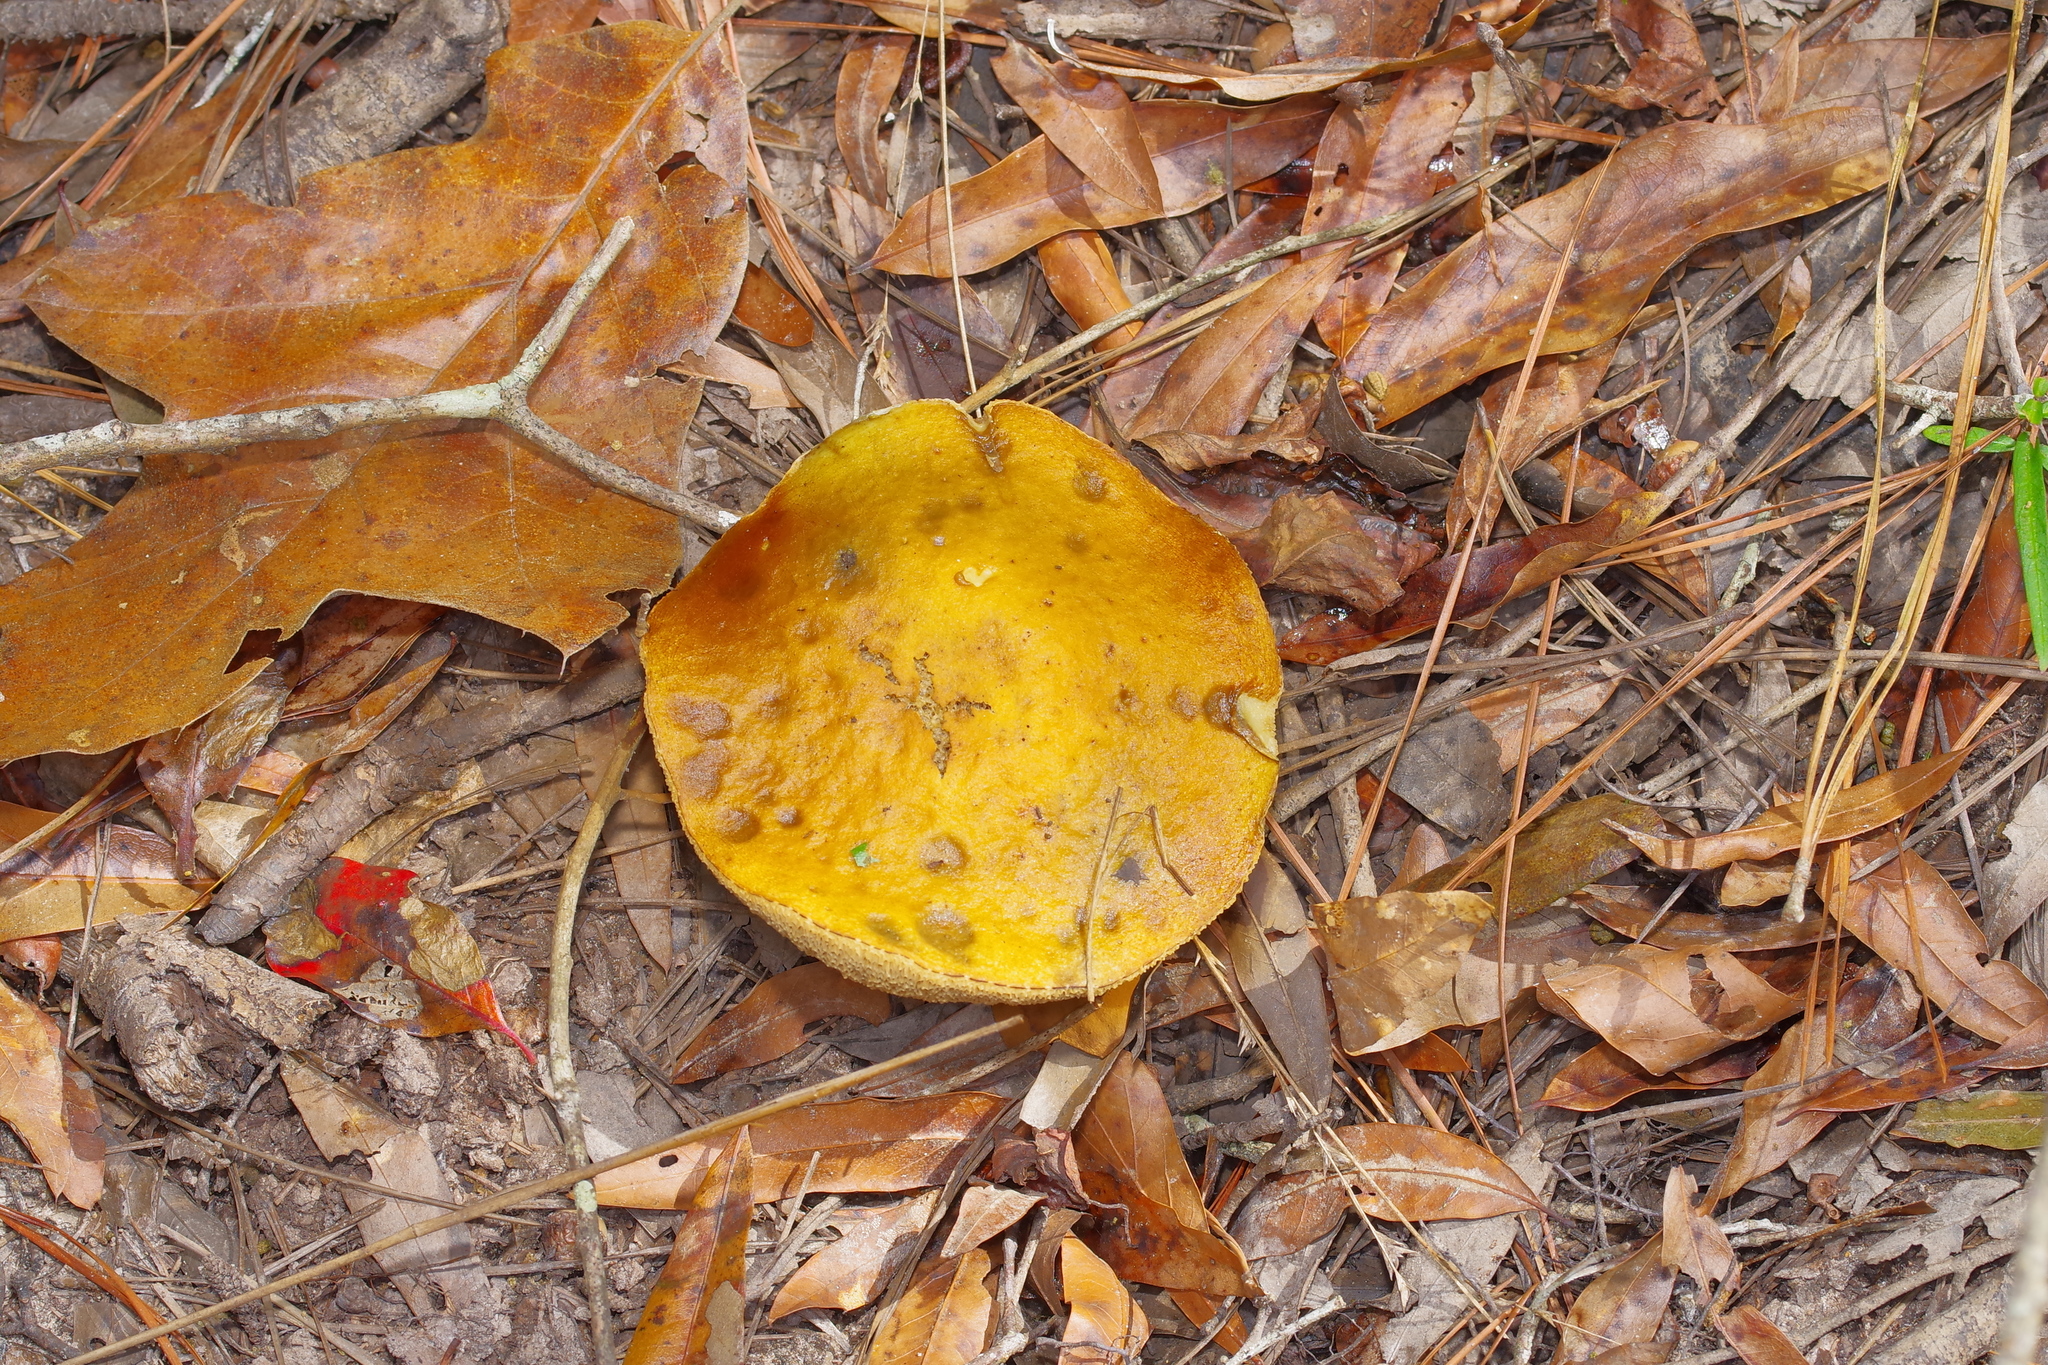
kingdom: Fungi
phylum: Basidiomycota
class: Agaricomycetes
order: Boletales
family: Boletaceae
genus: Leccinellum
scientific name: Leccinellum rugosiceps
